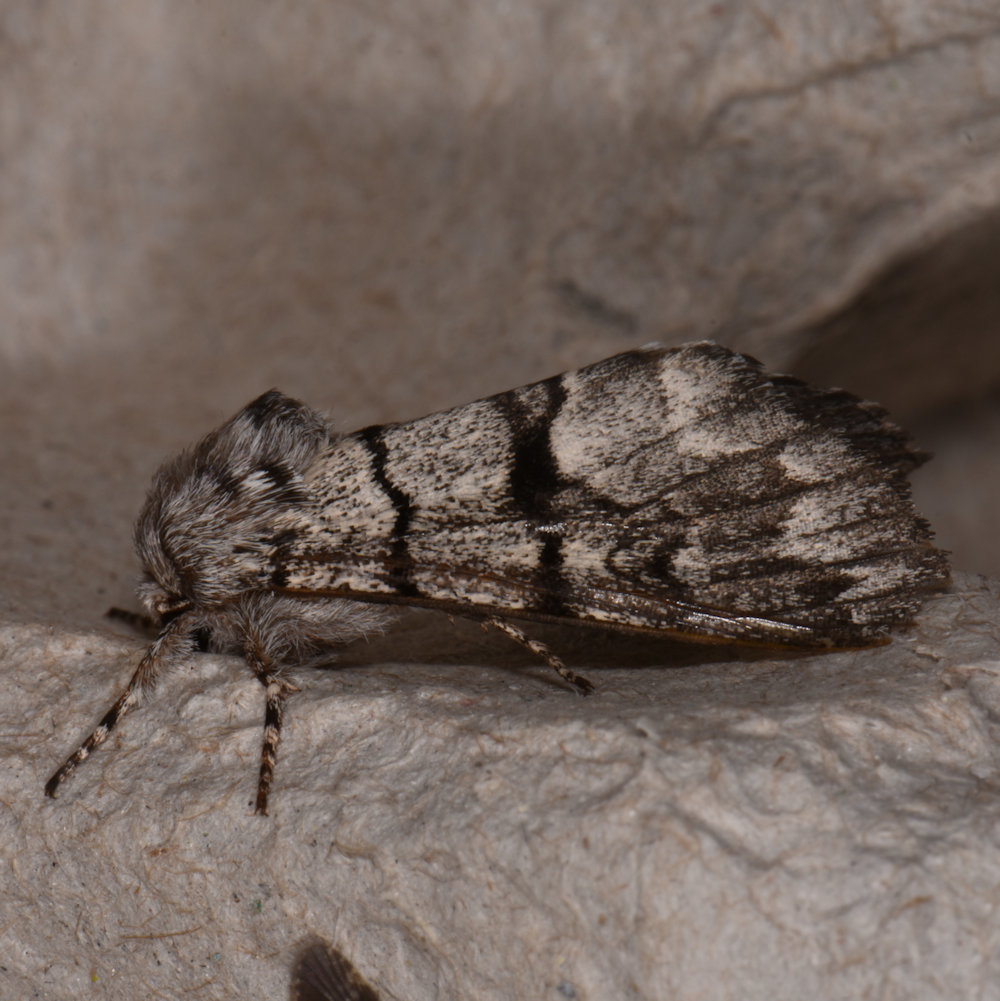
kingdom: Animalia
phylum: Arthropoda
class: Insecta
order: Lepidoptera
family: Noctuidae
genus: Panthea
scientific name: Panthea furcilla
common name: Eastern panthea moth
